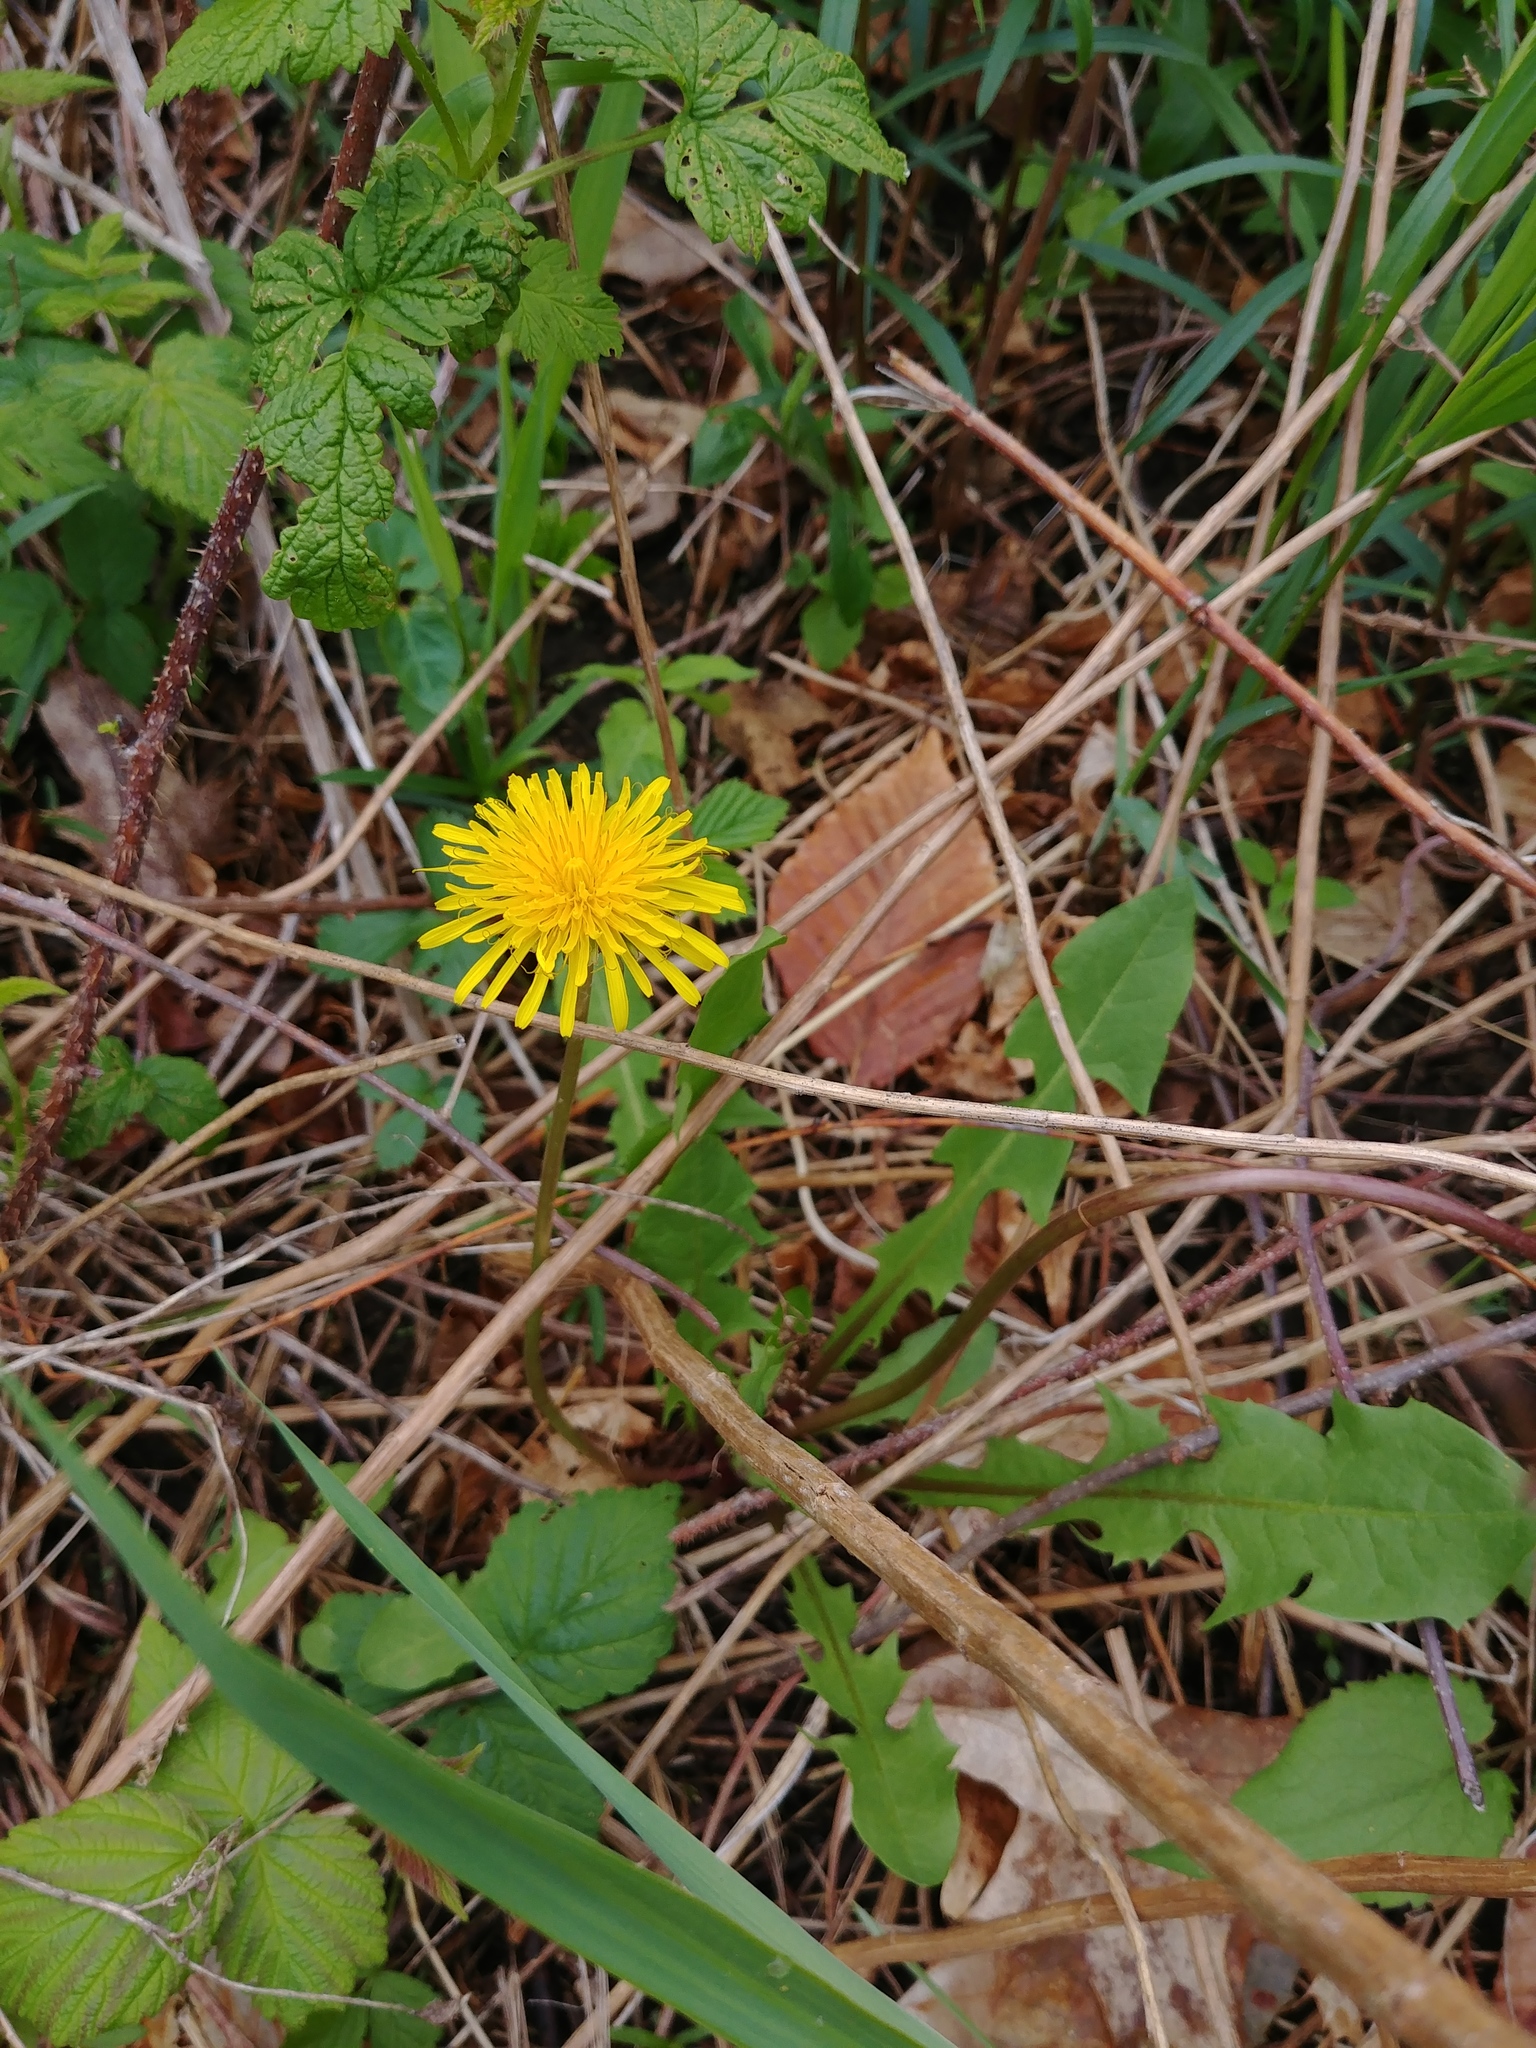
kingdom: Plantae
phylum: Tracheophyta
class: Magnoliopsida
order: Asterales
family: Asteraceae
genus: Taraxacum
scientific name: Taraxacum officinale
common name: Common dandelion
